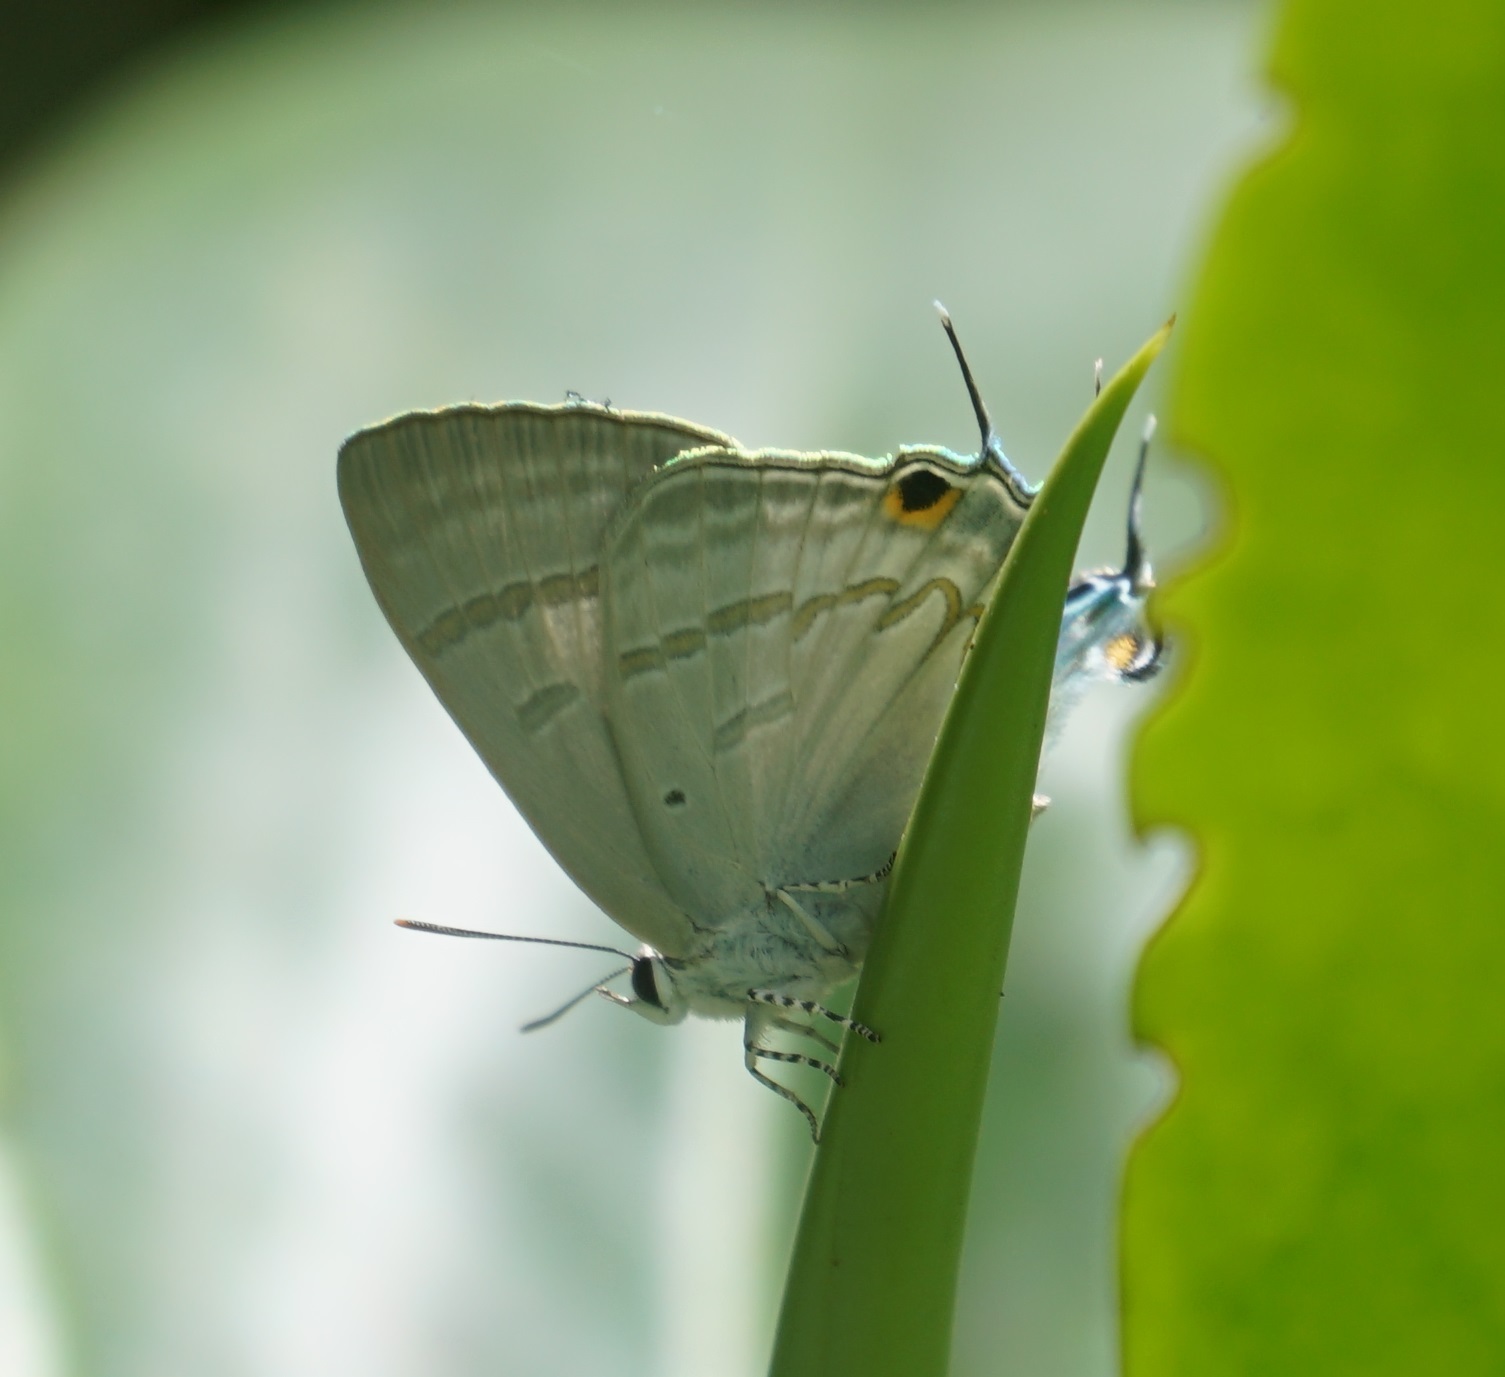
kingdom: Animalia
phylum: Arthropoda
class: Insecta
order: Lepidoptera
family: Lycaenidae
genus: Hypolycaena
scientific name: Hypolycaena phorbas
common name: Black-spotted flash
